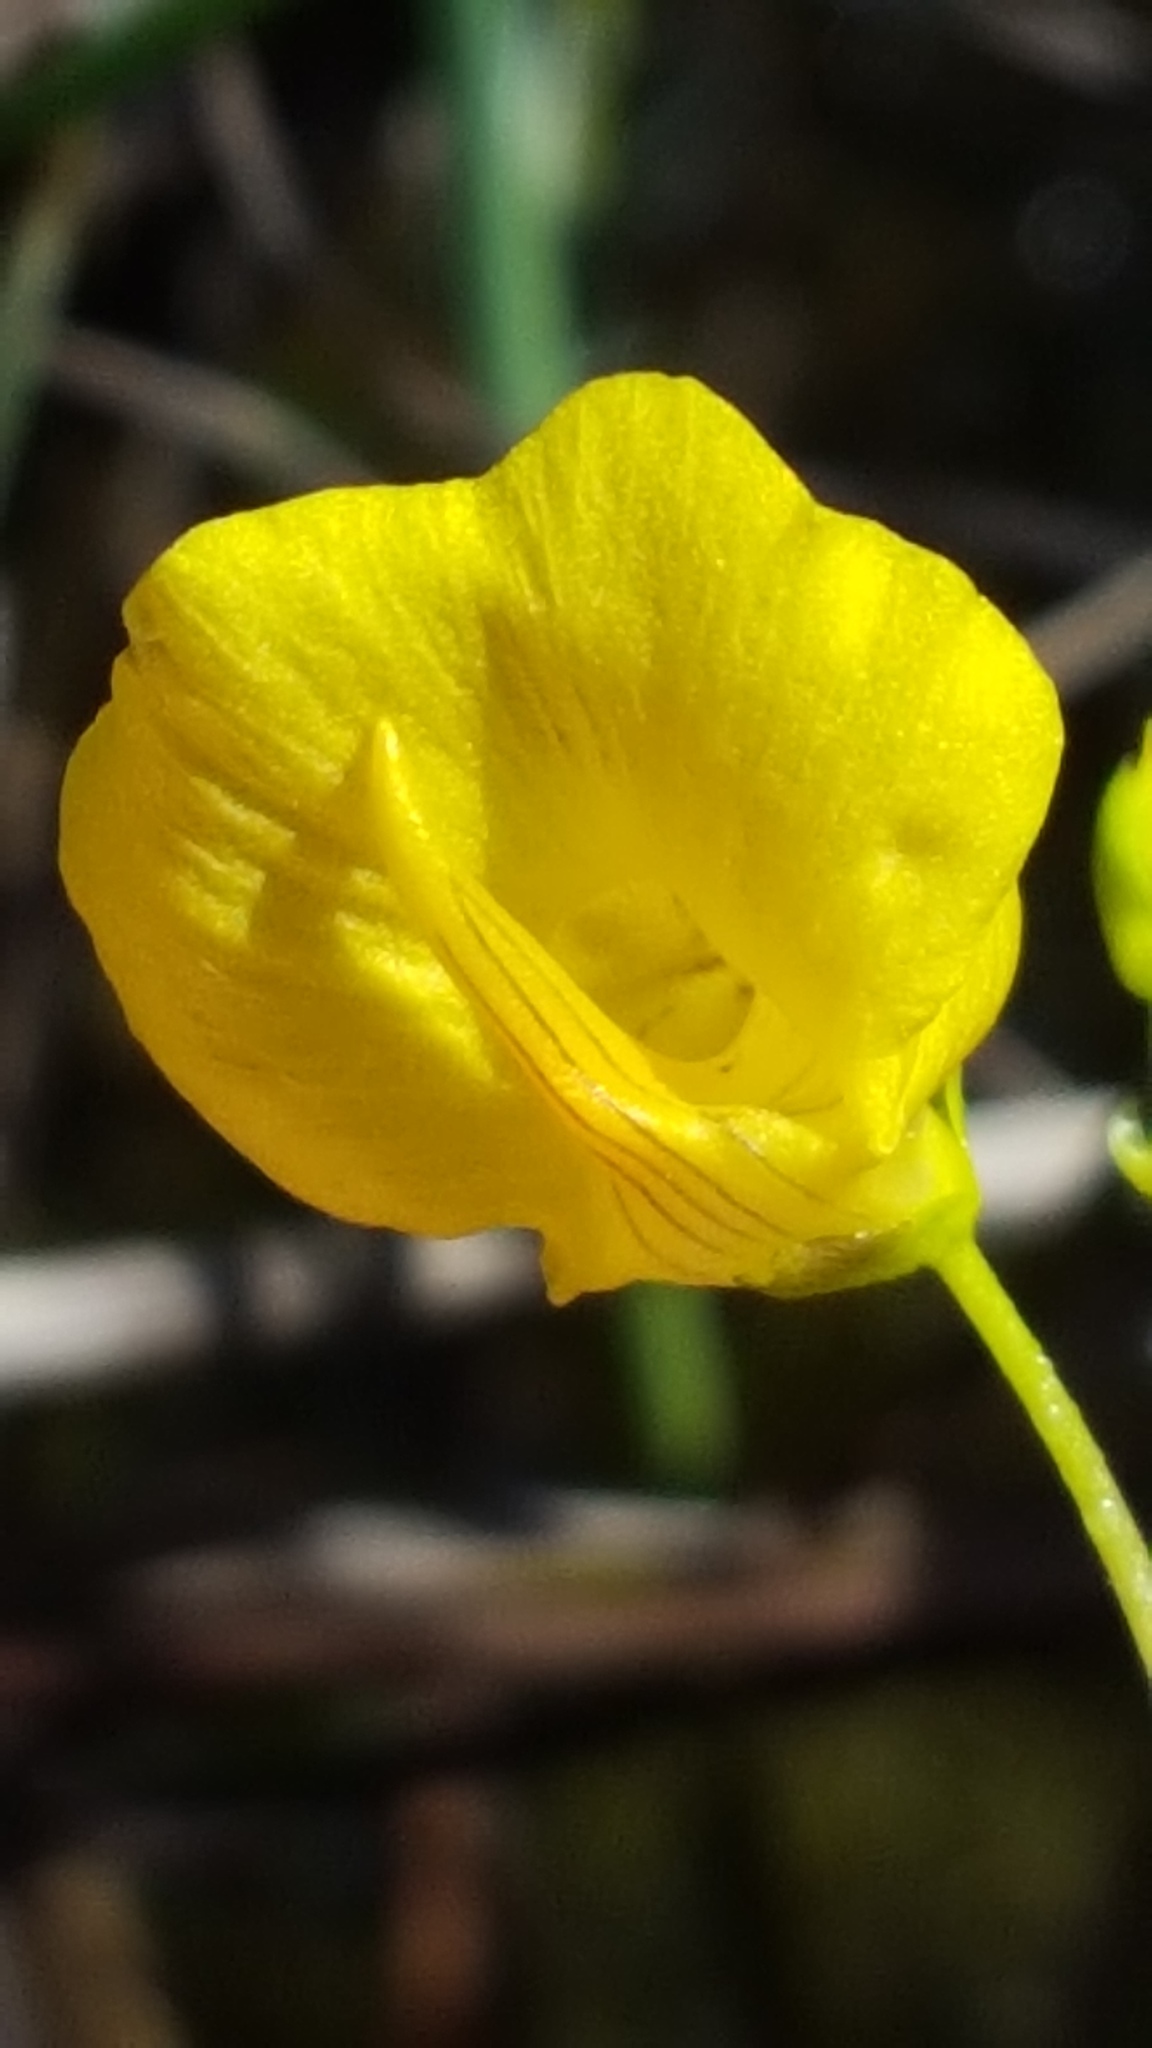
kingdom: Plantae
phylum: Tracheophyta
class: Magnoliopsida
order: Lamiales
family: Lentibulariaceae
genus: Utricularia
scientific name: Utricularia intermedia
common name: Intermediate bladderwort
